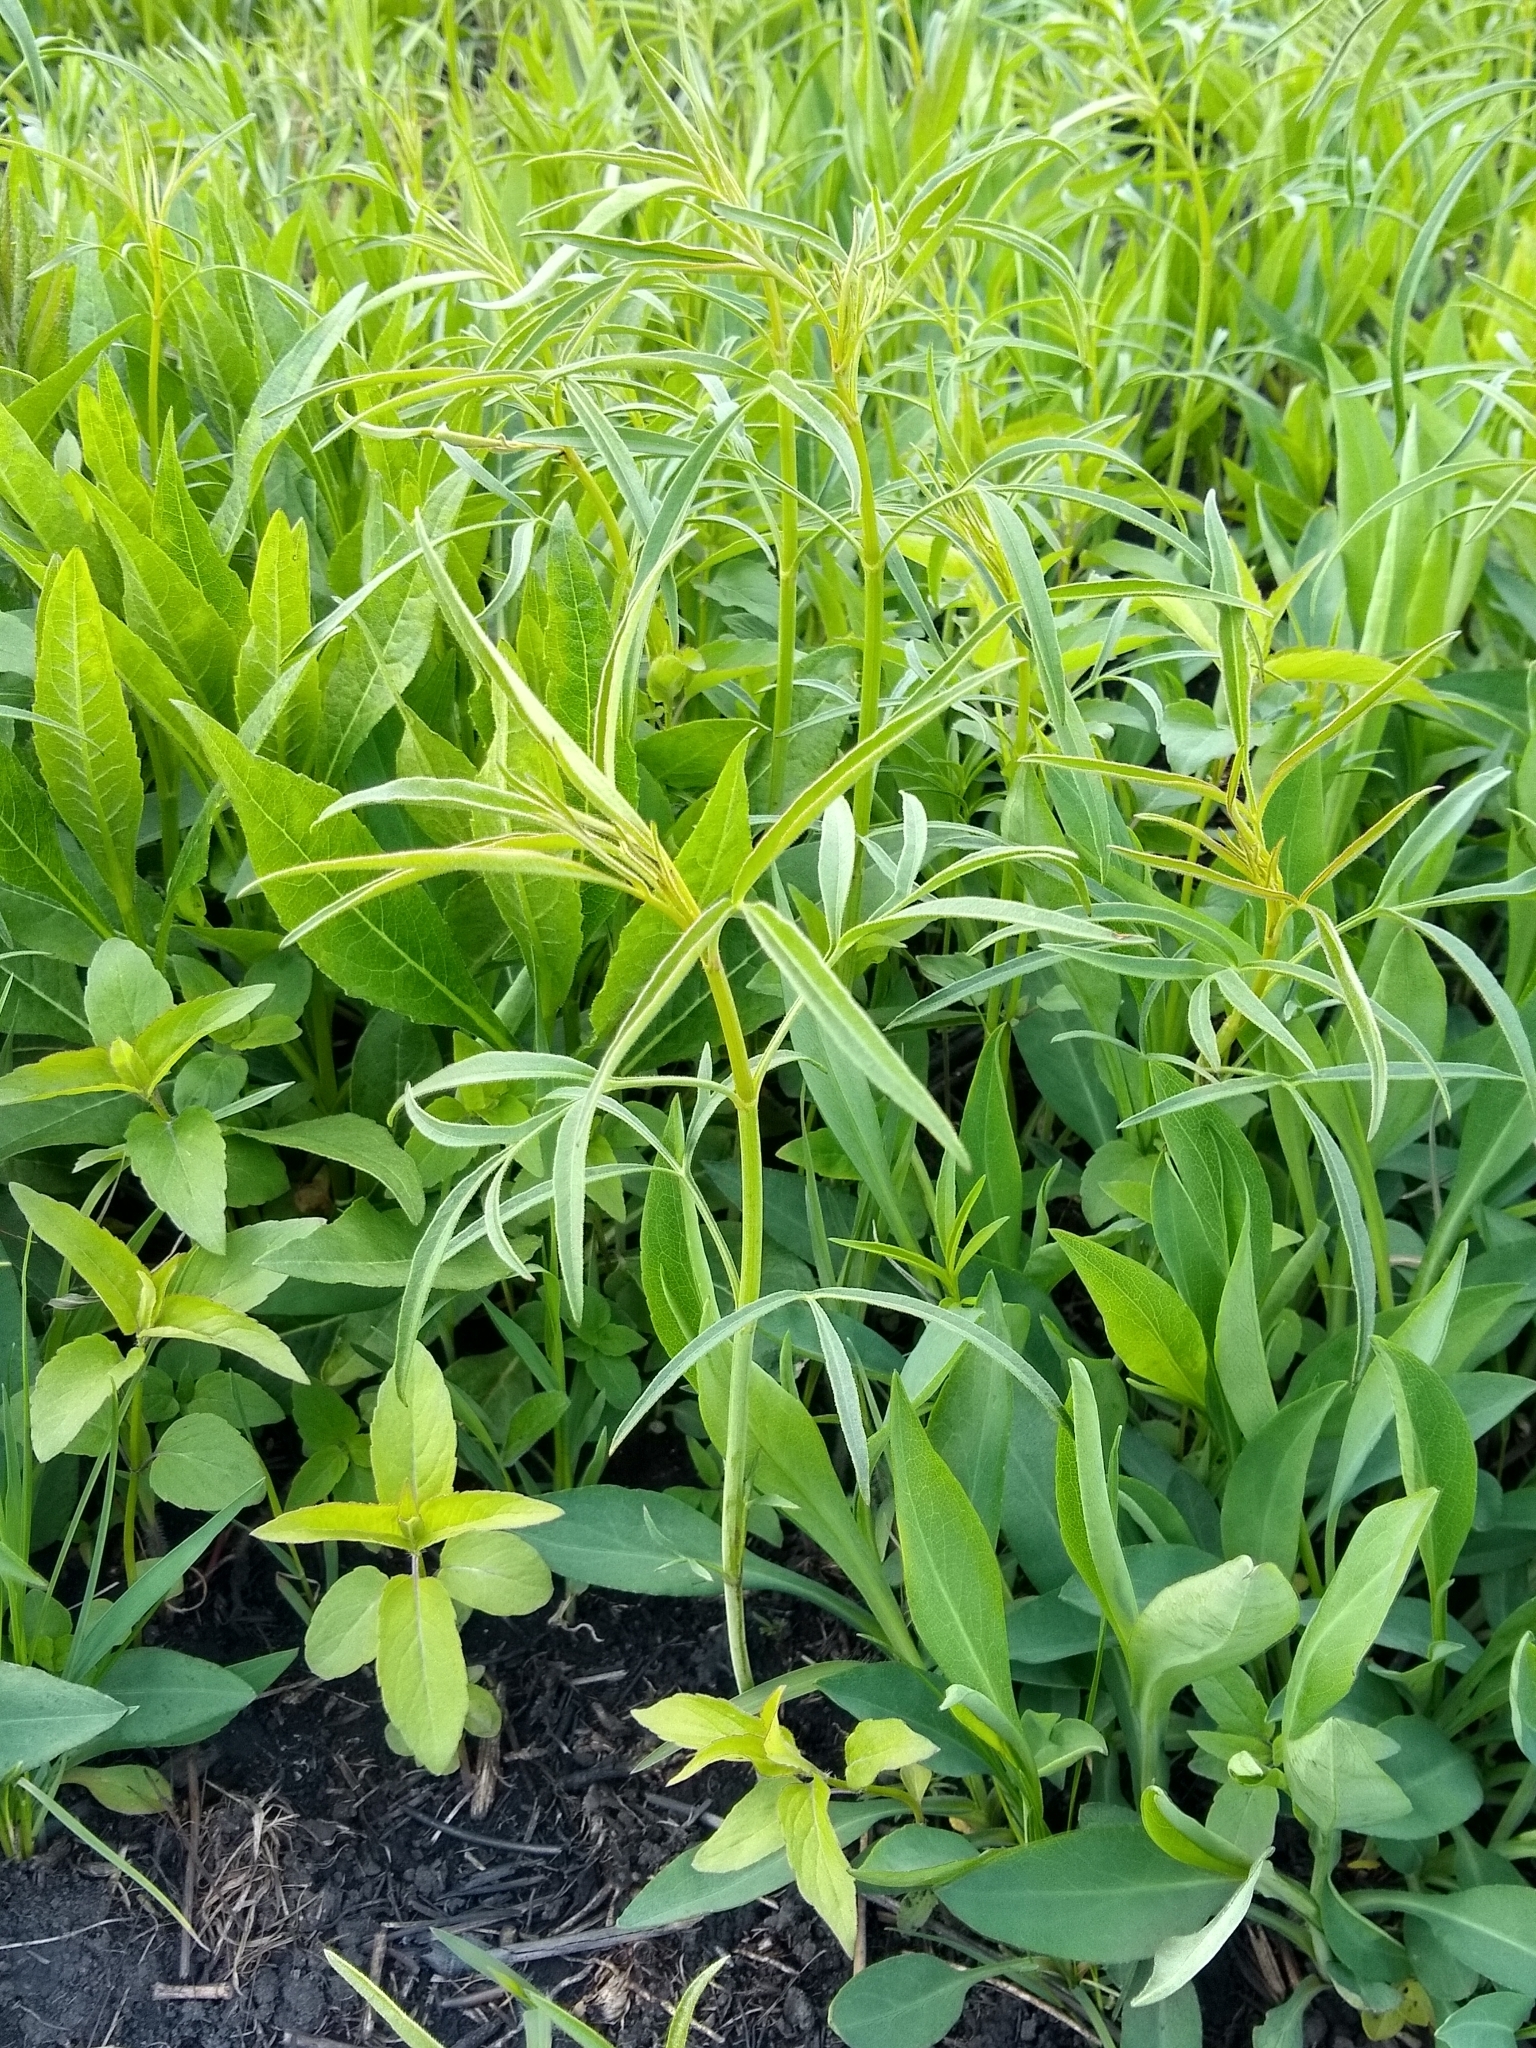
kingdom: Plantae
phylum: Tracheophyta
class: Magnoliopsida
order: Asterales
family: Asteraceae
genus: Coreopsis
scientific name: Coreopsis tripteris
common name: Tall coreopsis
